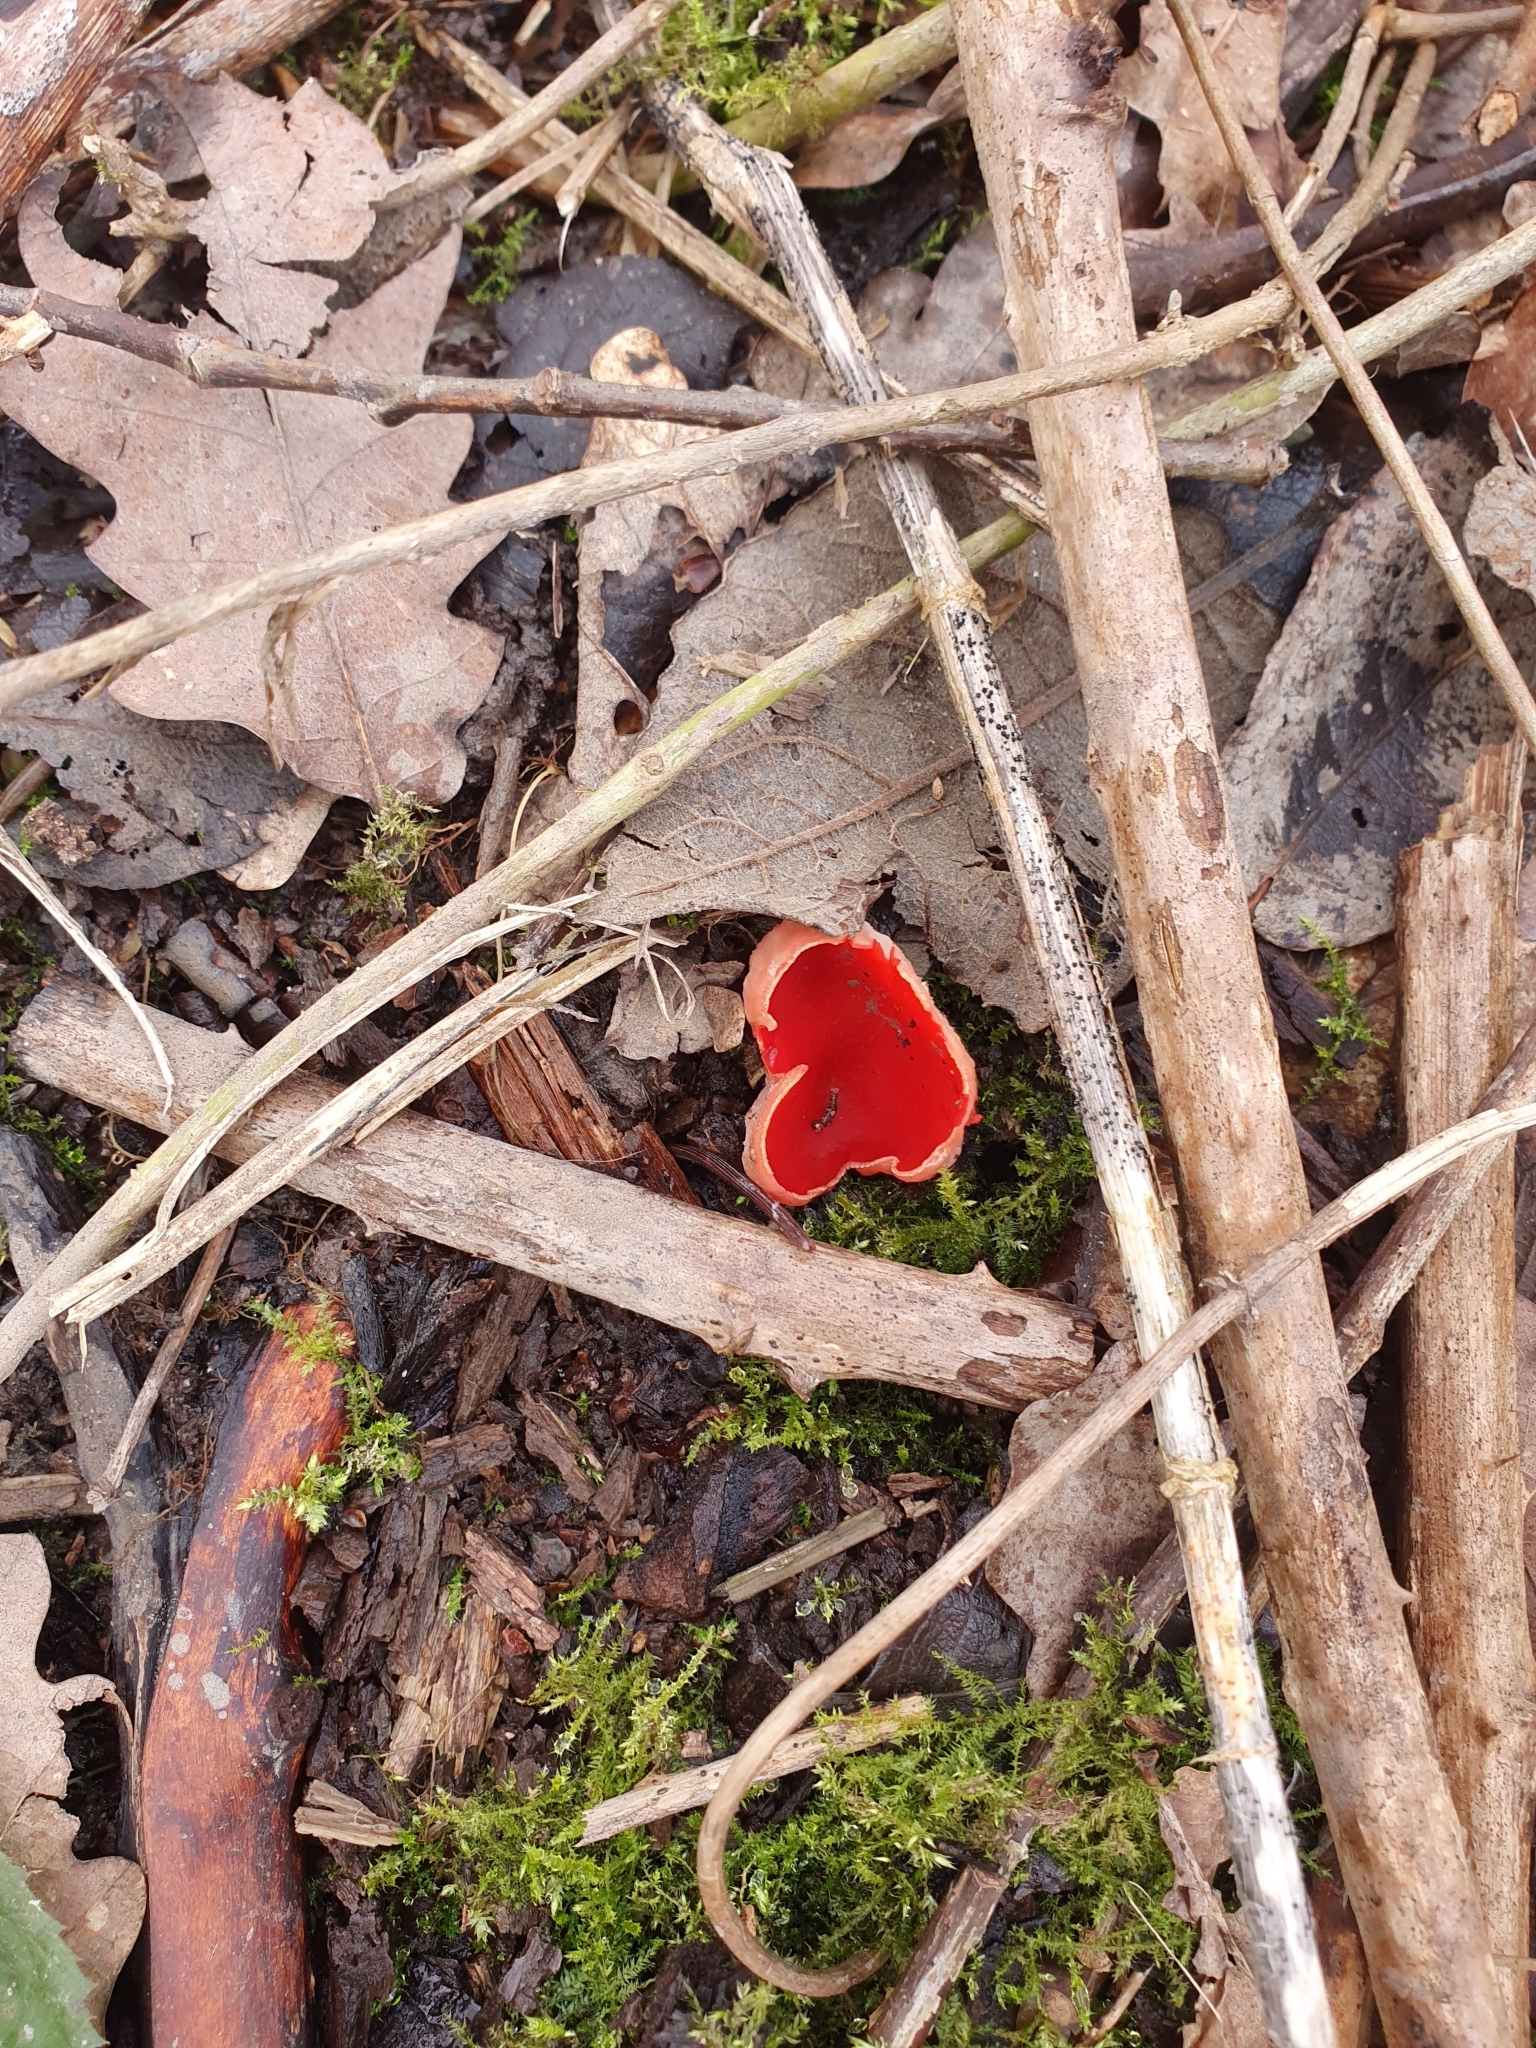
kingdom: Fungi
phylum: Ascomycota
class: Pezizomycetes
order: Pezizales
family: Sarcoscyphaceae
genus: Sarcoscypha
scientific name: Sarcoscypha
